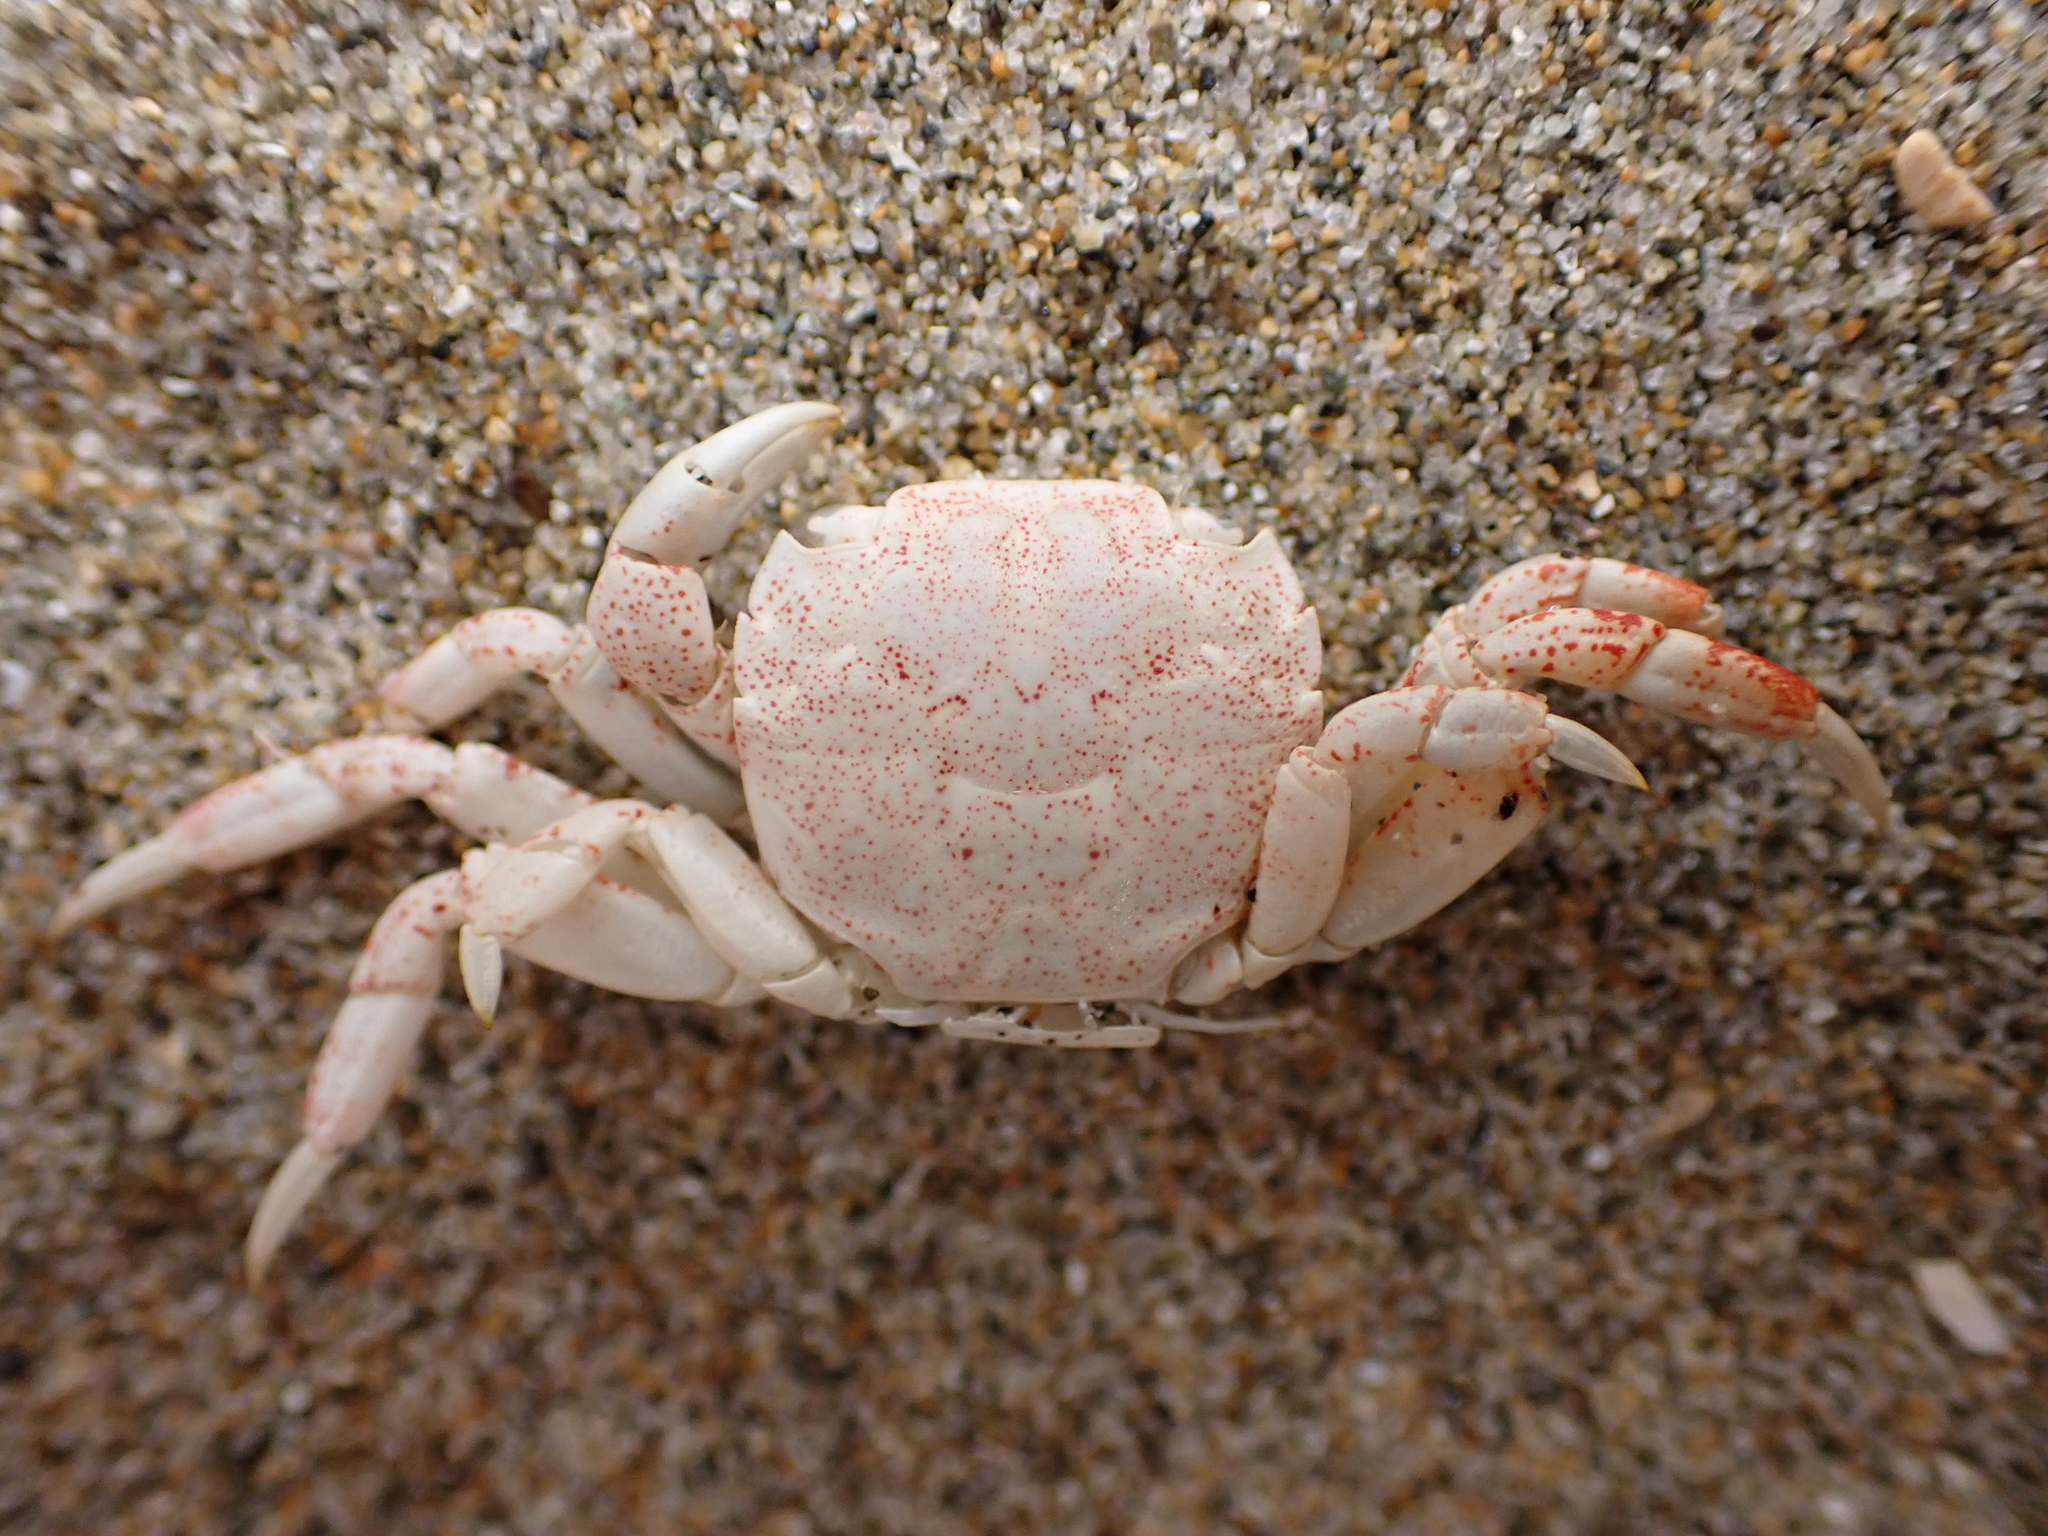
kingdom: Animalia
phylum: Arthropoda
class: Malacostraca
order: Decapoda
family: Varunidae
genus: Hemigrapsus
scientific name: Hemigrapsus crenulatus
